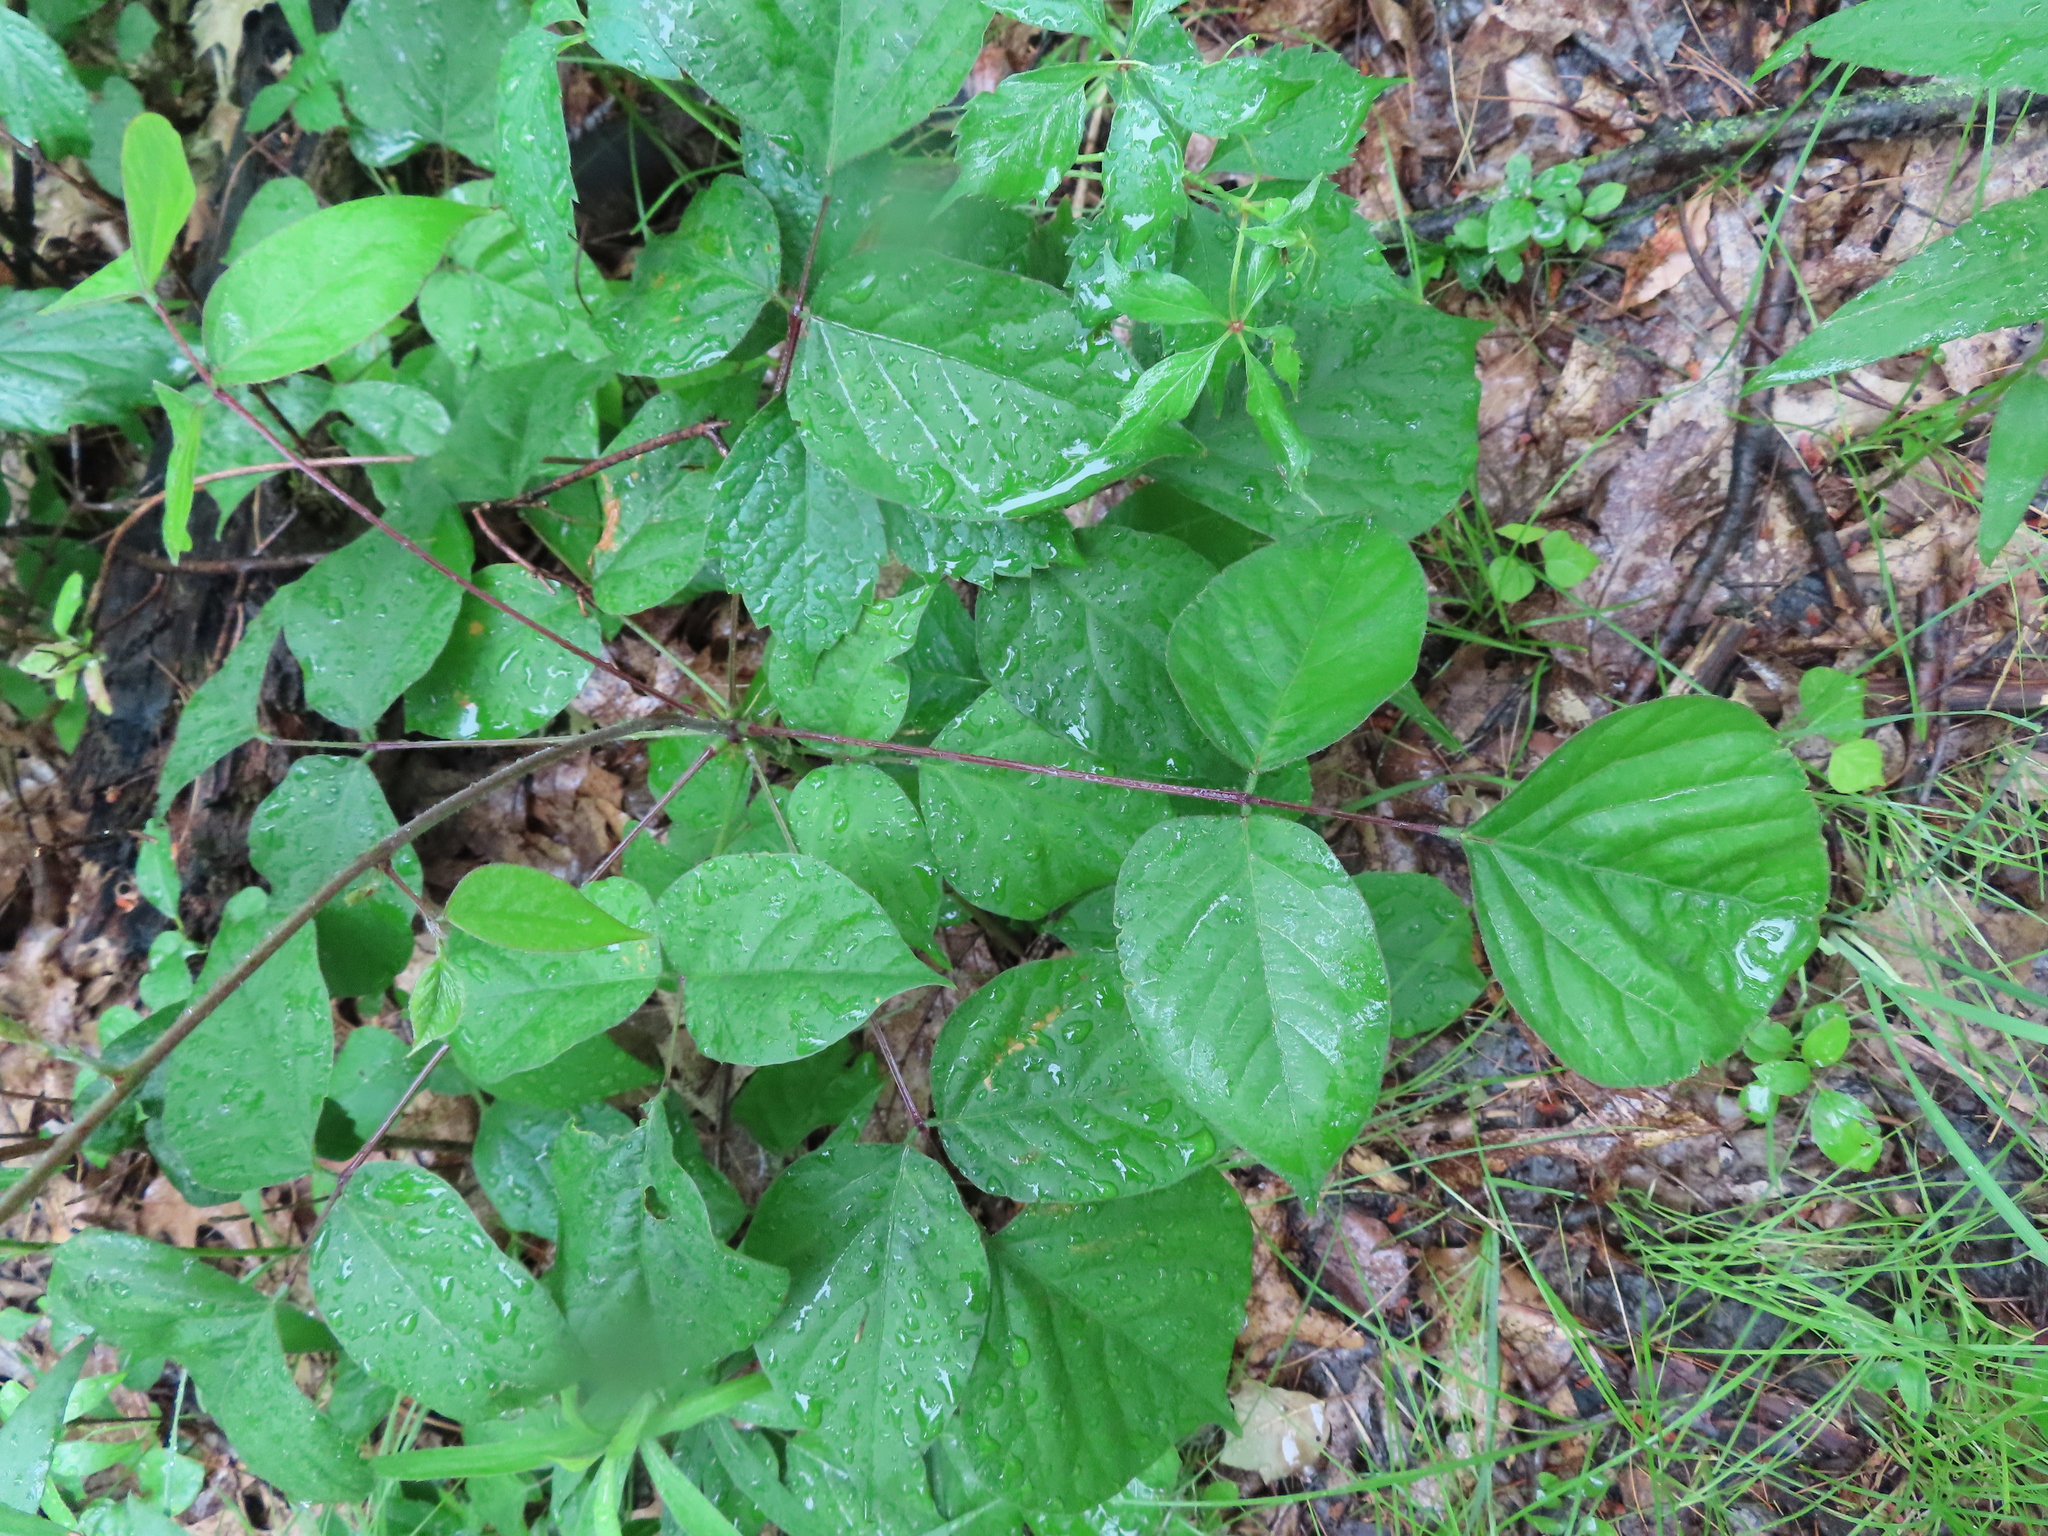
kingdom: Plantae
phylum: Tracheophyta
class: Magnoliopsida
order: Fabales
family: Fabaceae
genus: Hylodesmum
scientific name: Hylodesmum glutinosum
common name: Clustered-leaved tick-trefoil
